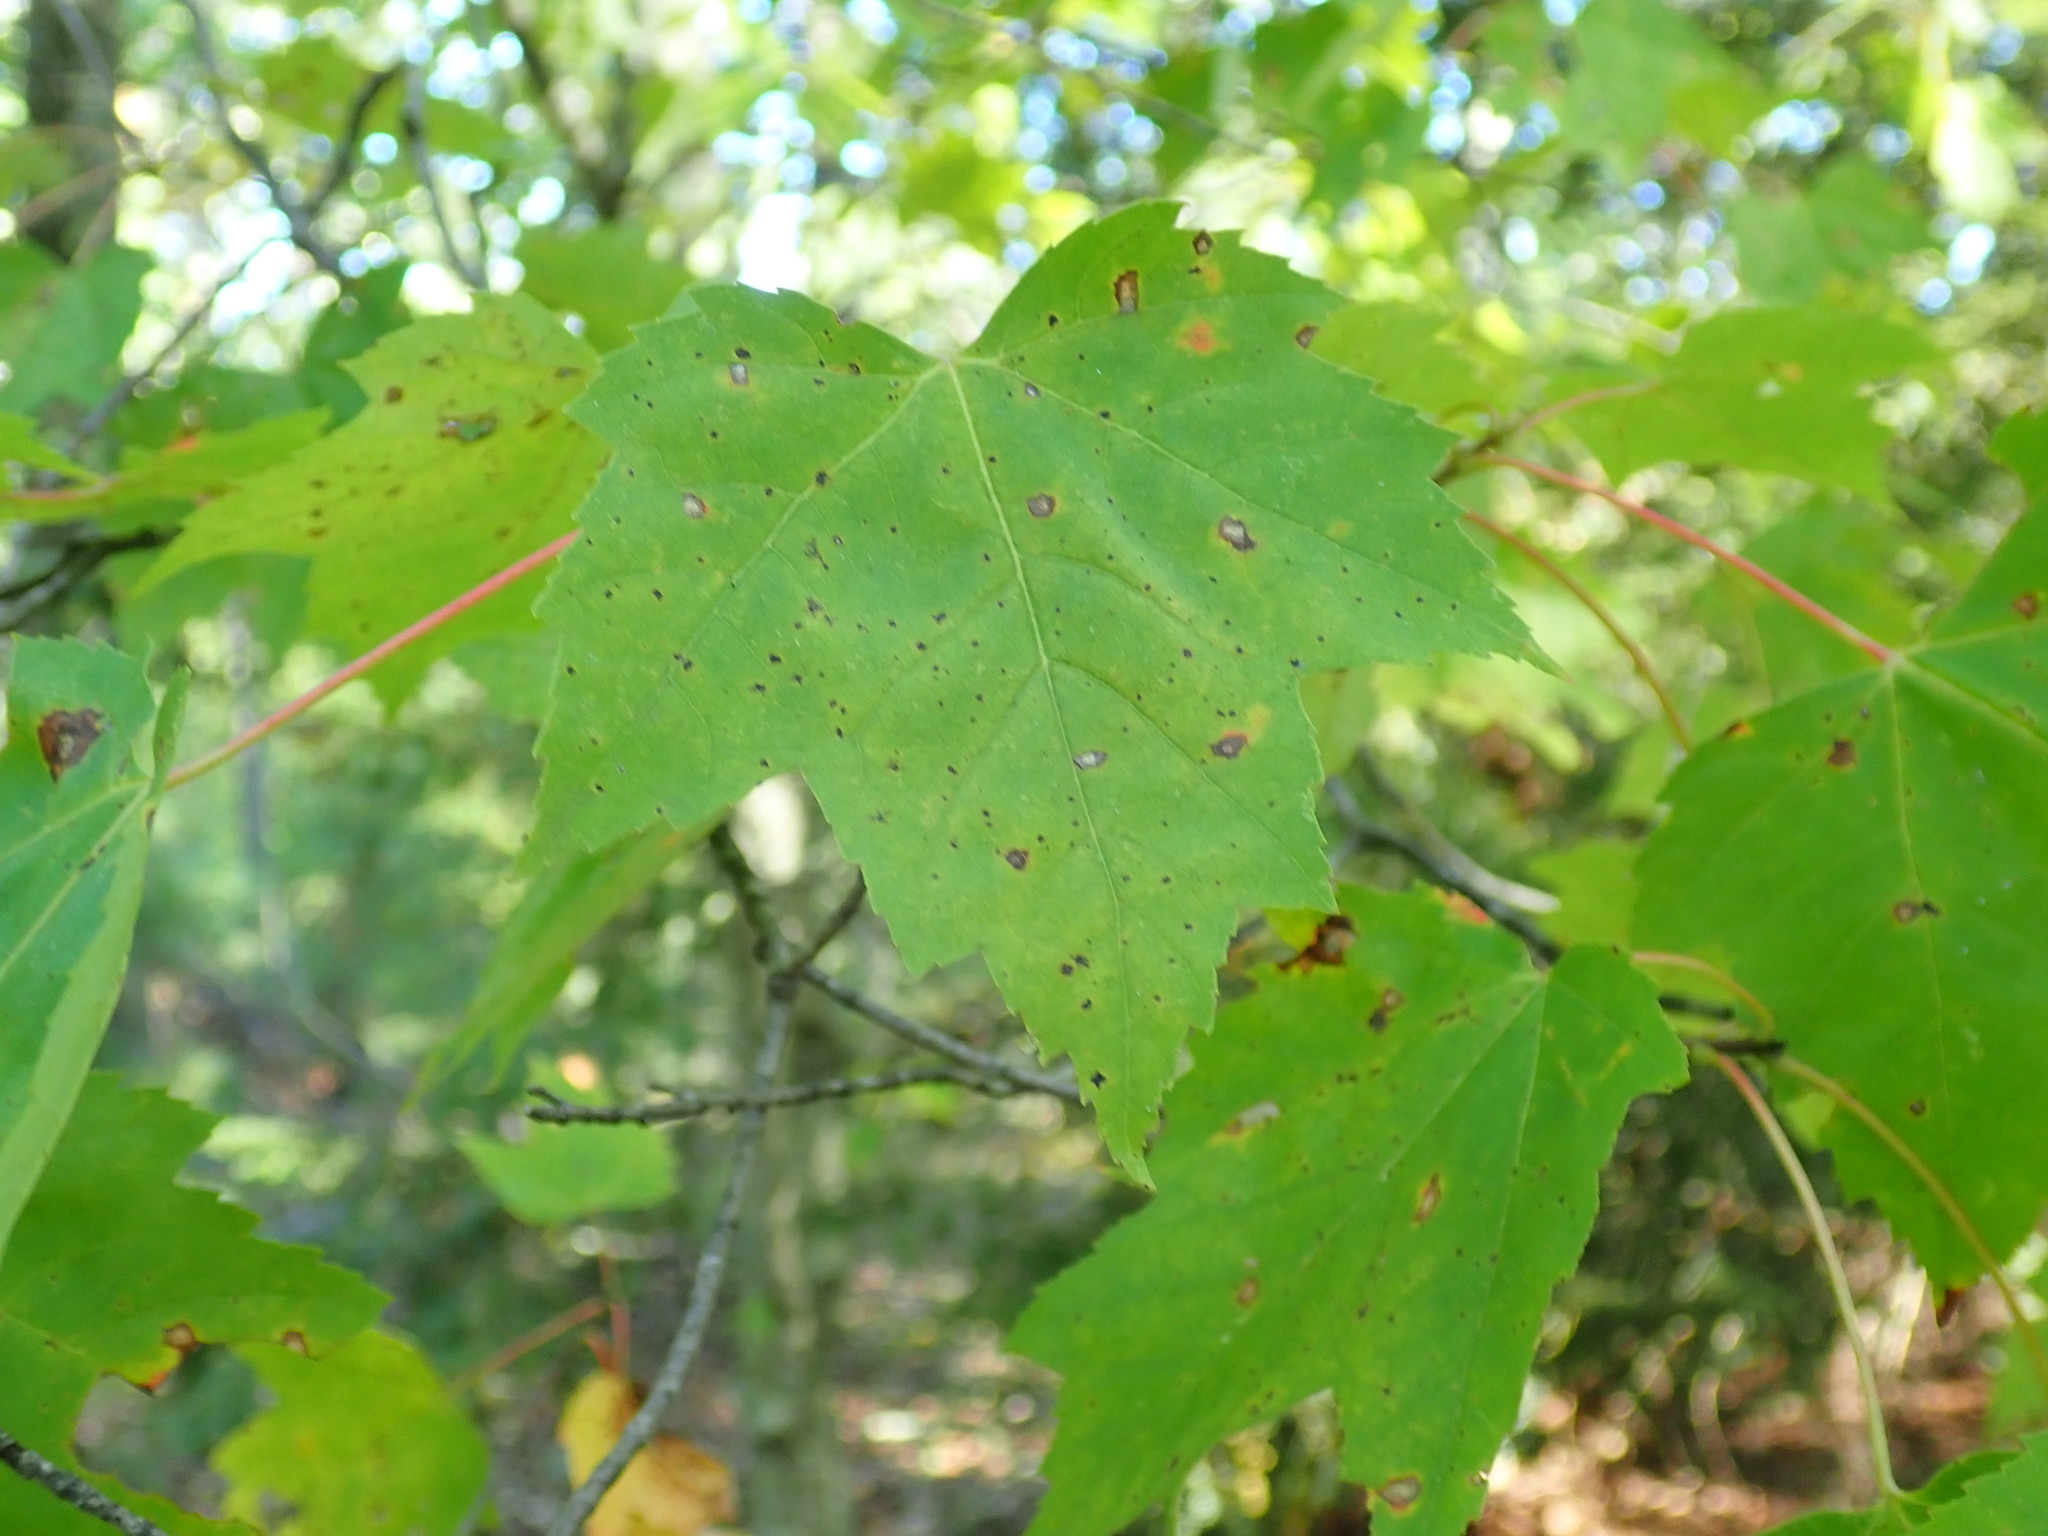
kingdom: Plantae
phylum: Tracheophyta
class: Magnoliopsida
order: Sapindales
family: Sapindaceae
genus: Acer
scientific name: Acer rubrum
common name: Red maple
